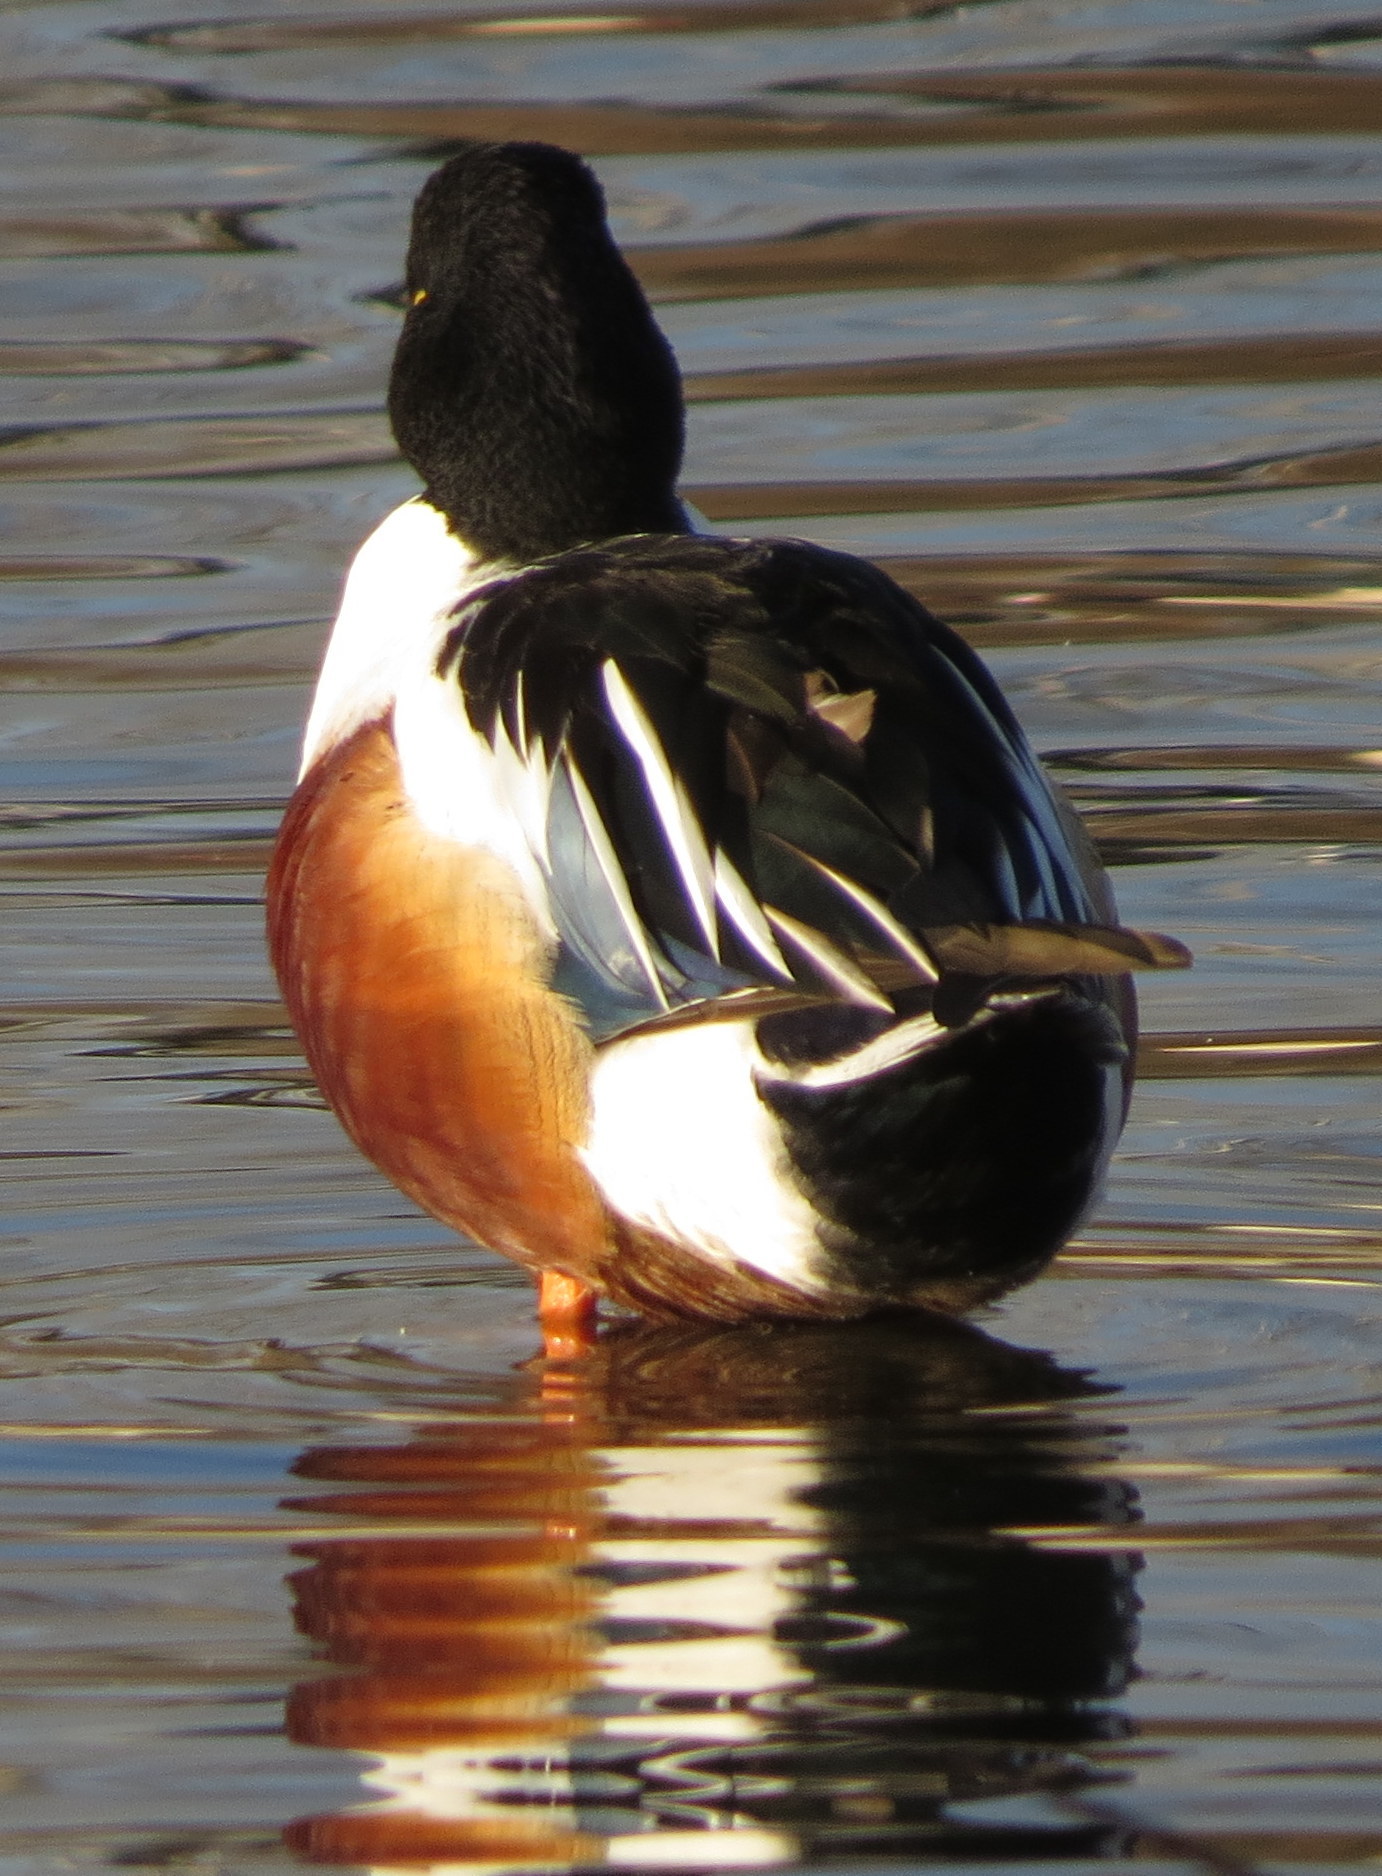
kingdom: Animalia
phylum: Chordata
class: Aves
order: Anseriformes
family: Anatidae
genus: Spatula
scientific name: Spatula clypeata
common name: Northern shoveler
